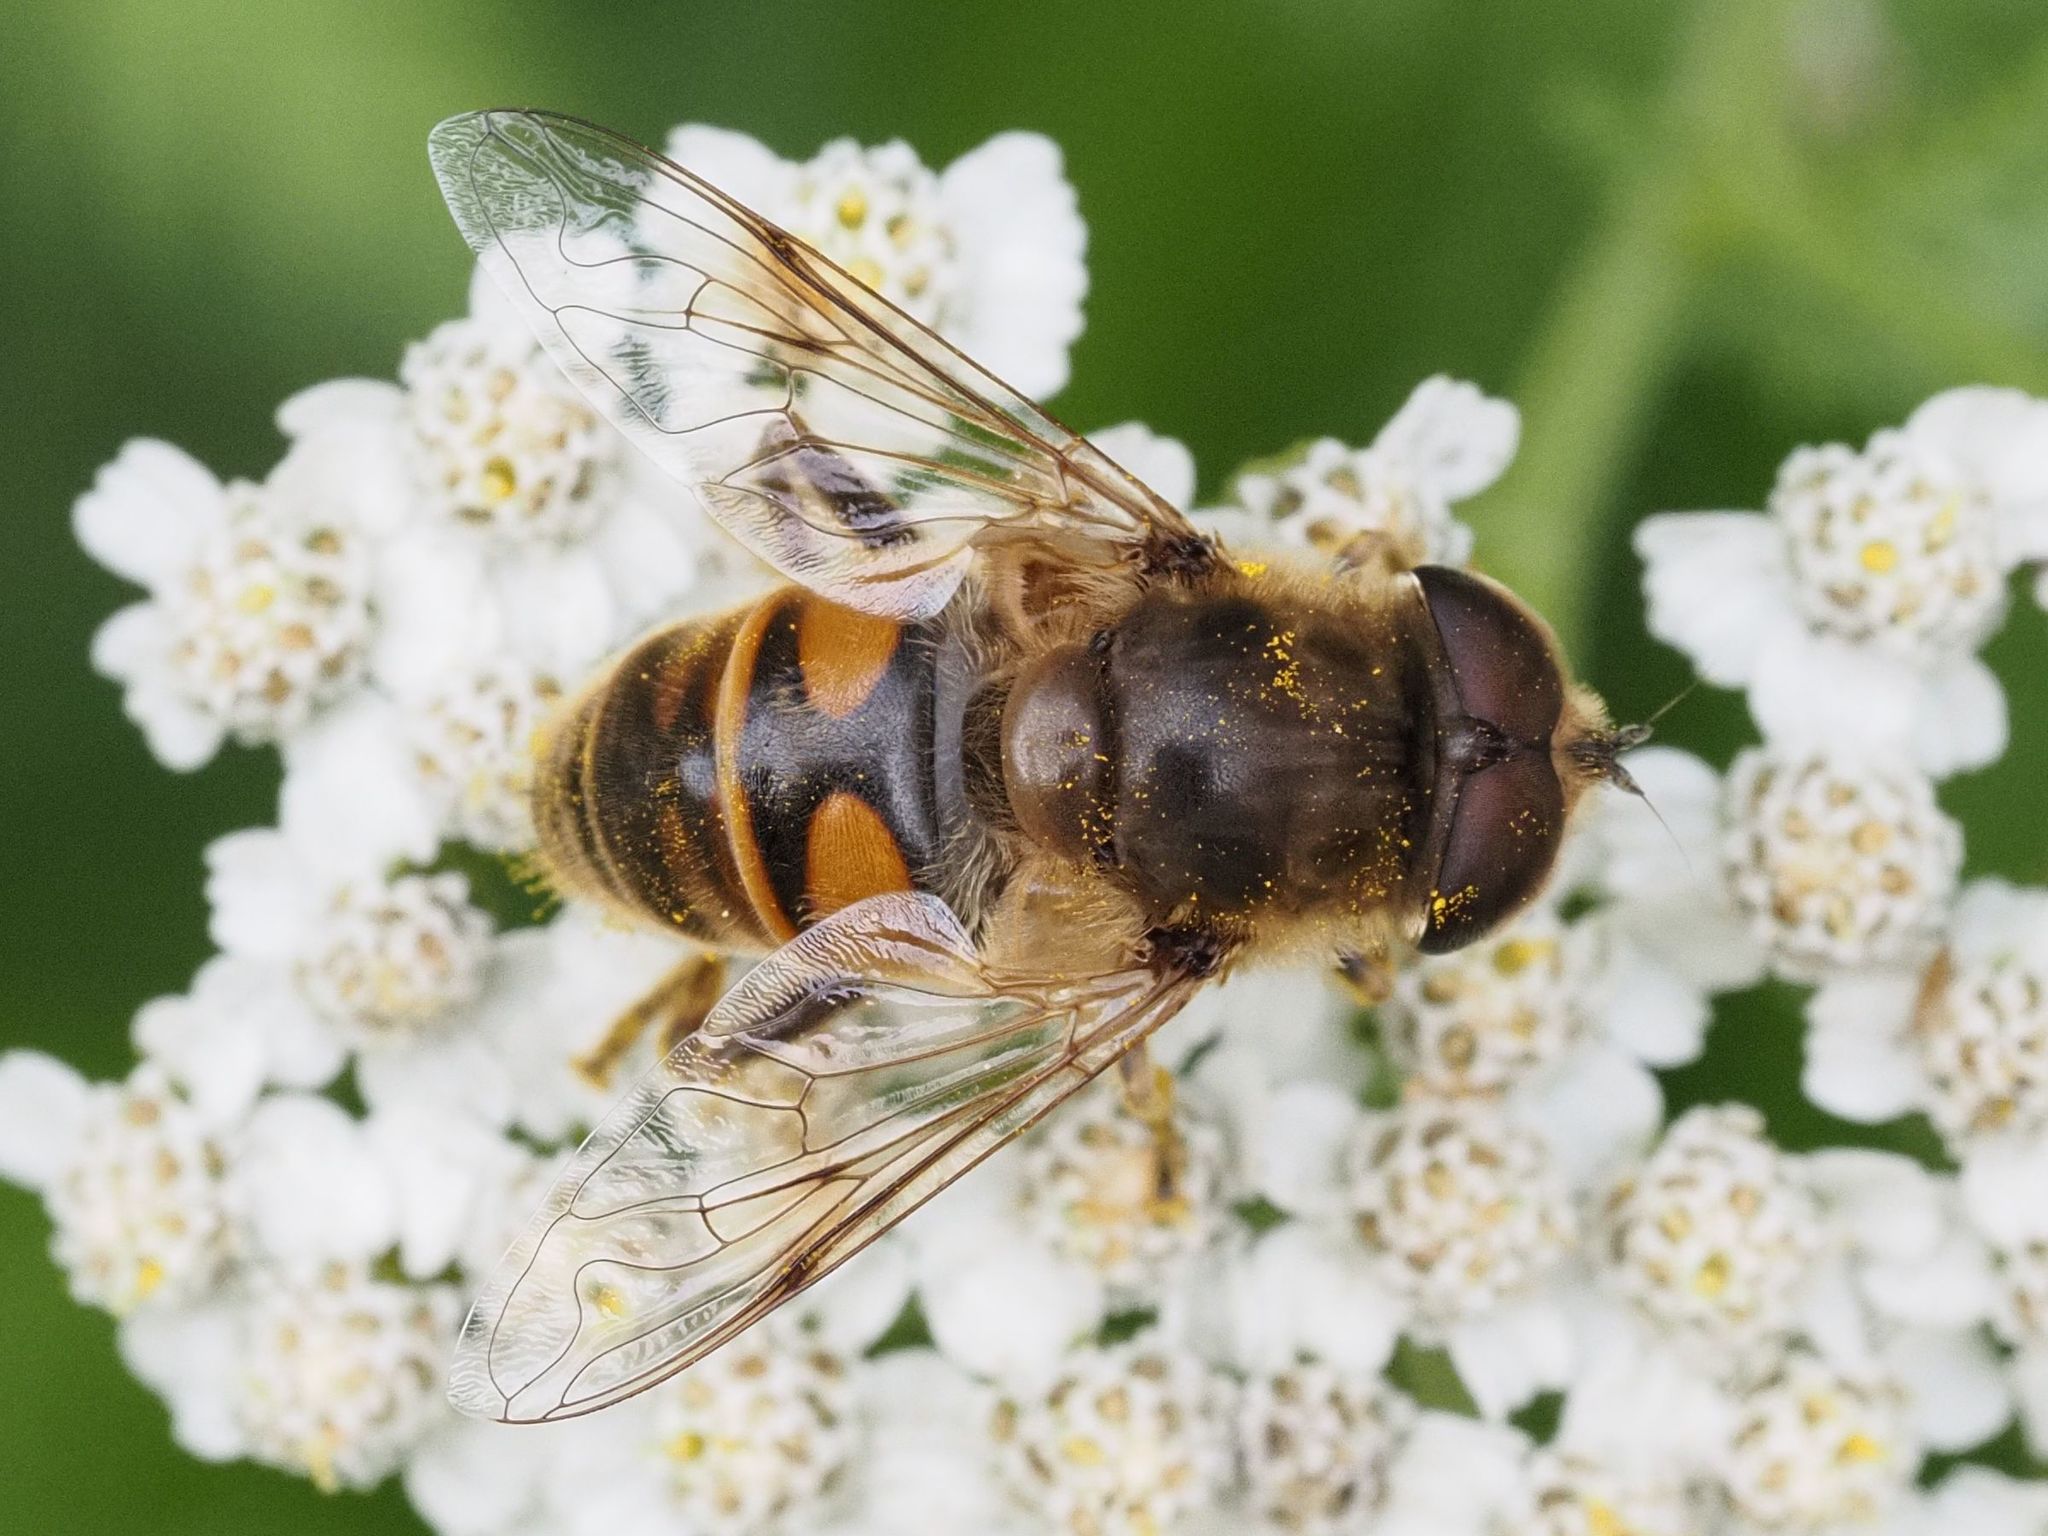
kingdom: Animalia
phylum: Arthropoda
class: Insecta
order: Diptera
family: Syrphidae
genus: Eristalis
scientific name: Eristalis tenax
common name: Drone fly
